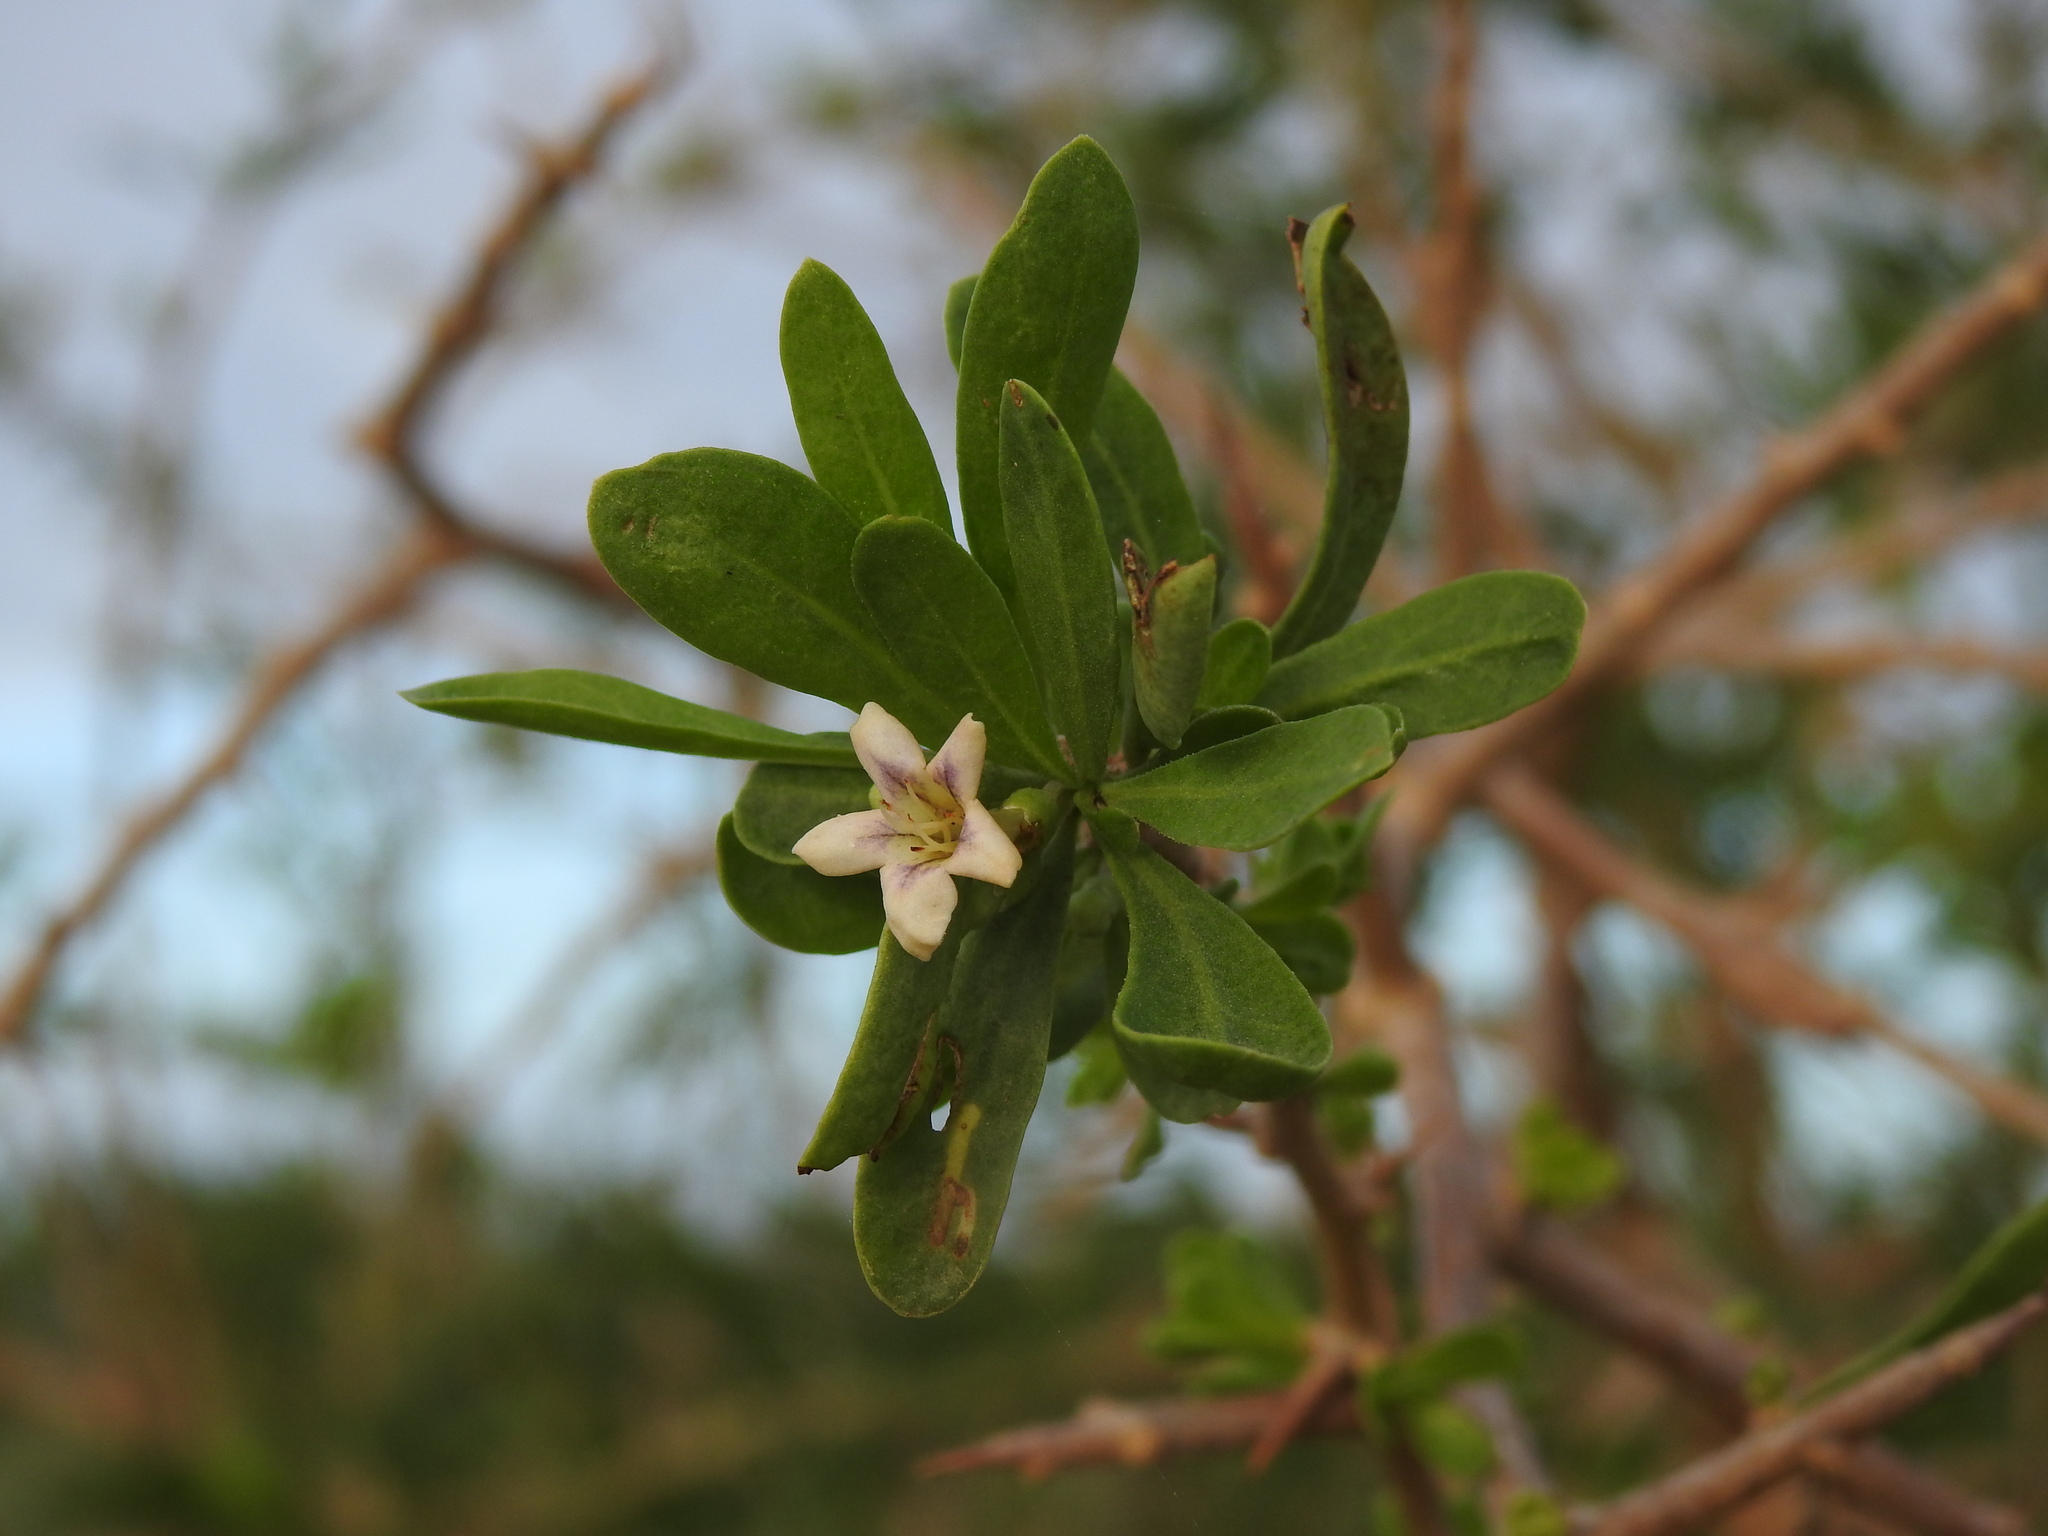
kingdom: Plantae
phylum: Tracheophyta
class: Magnoliopsida
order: Solanales
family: Solanaceae
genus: Lycium
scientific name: Lycium europaeum
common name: Boxthorn
